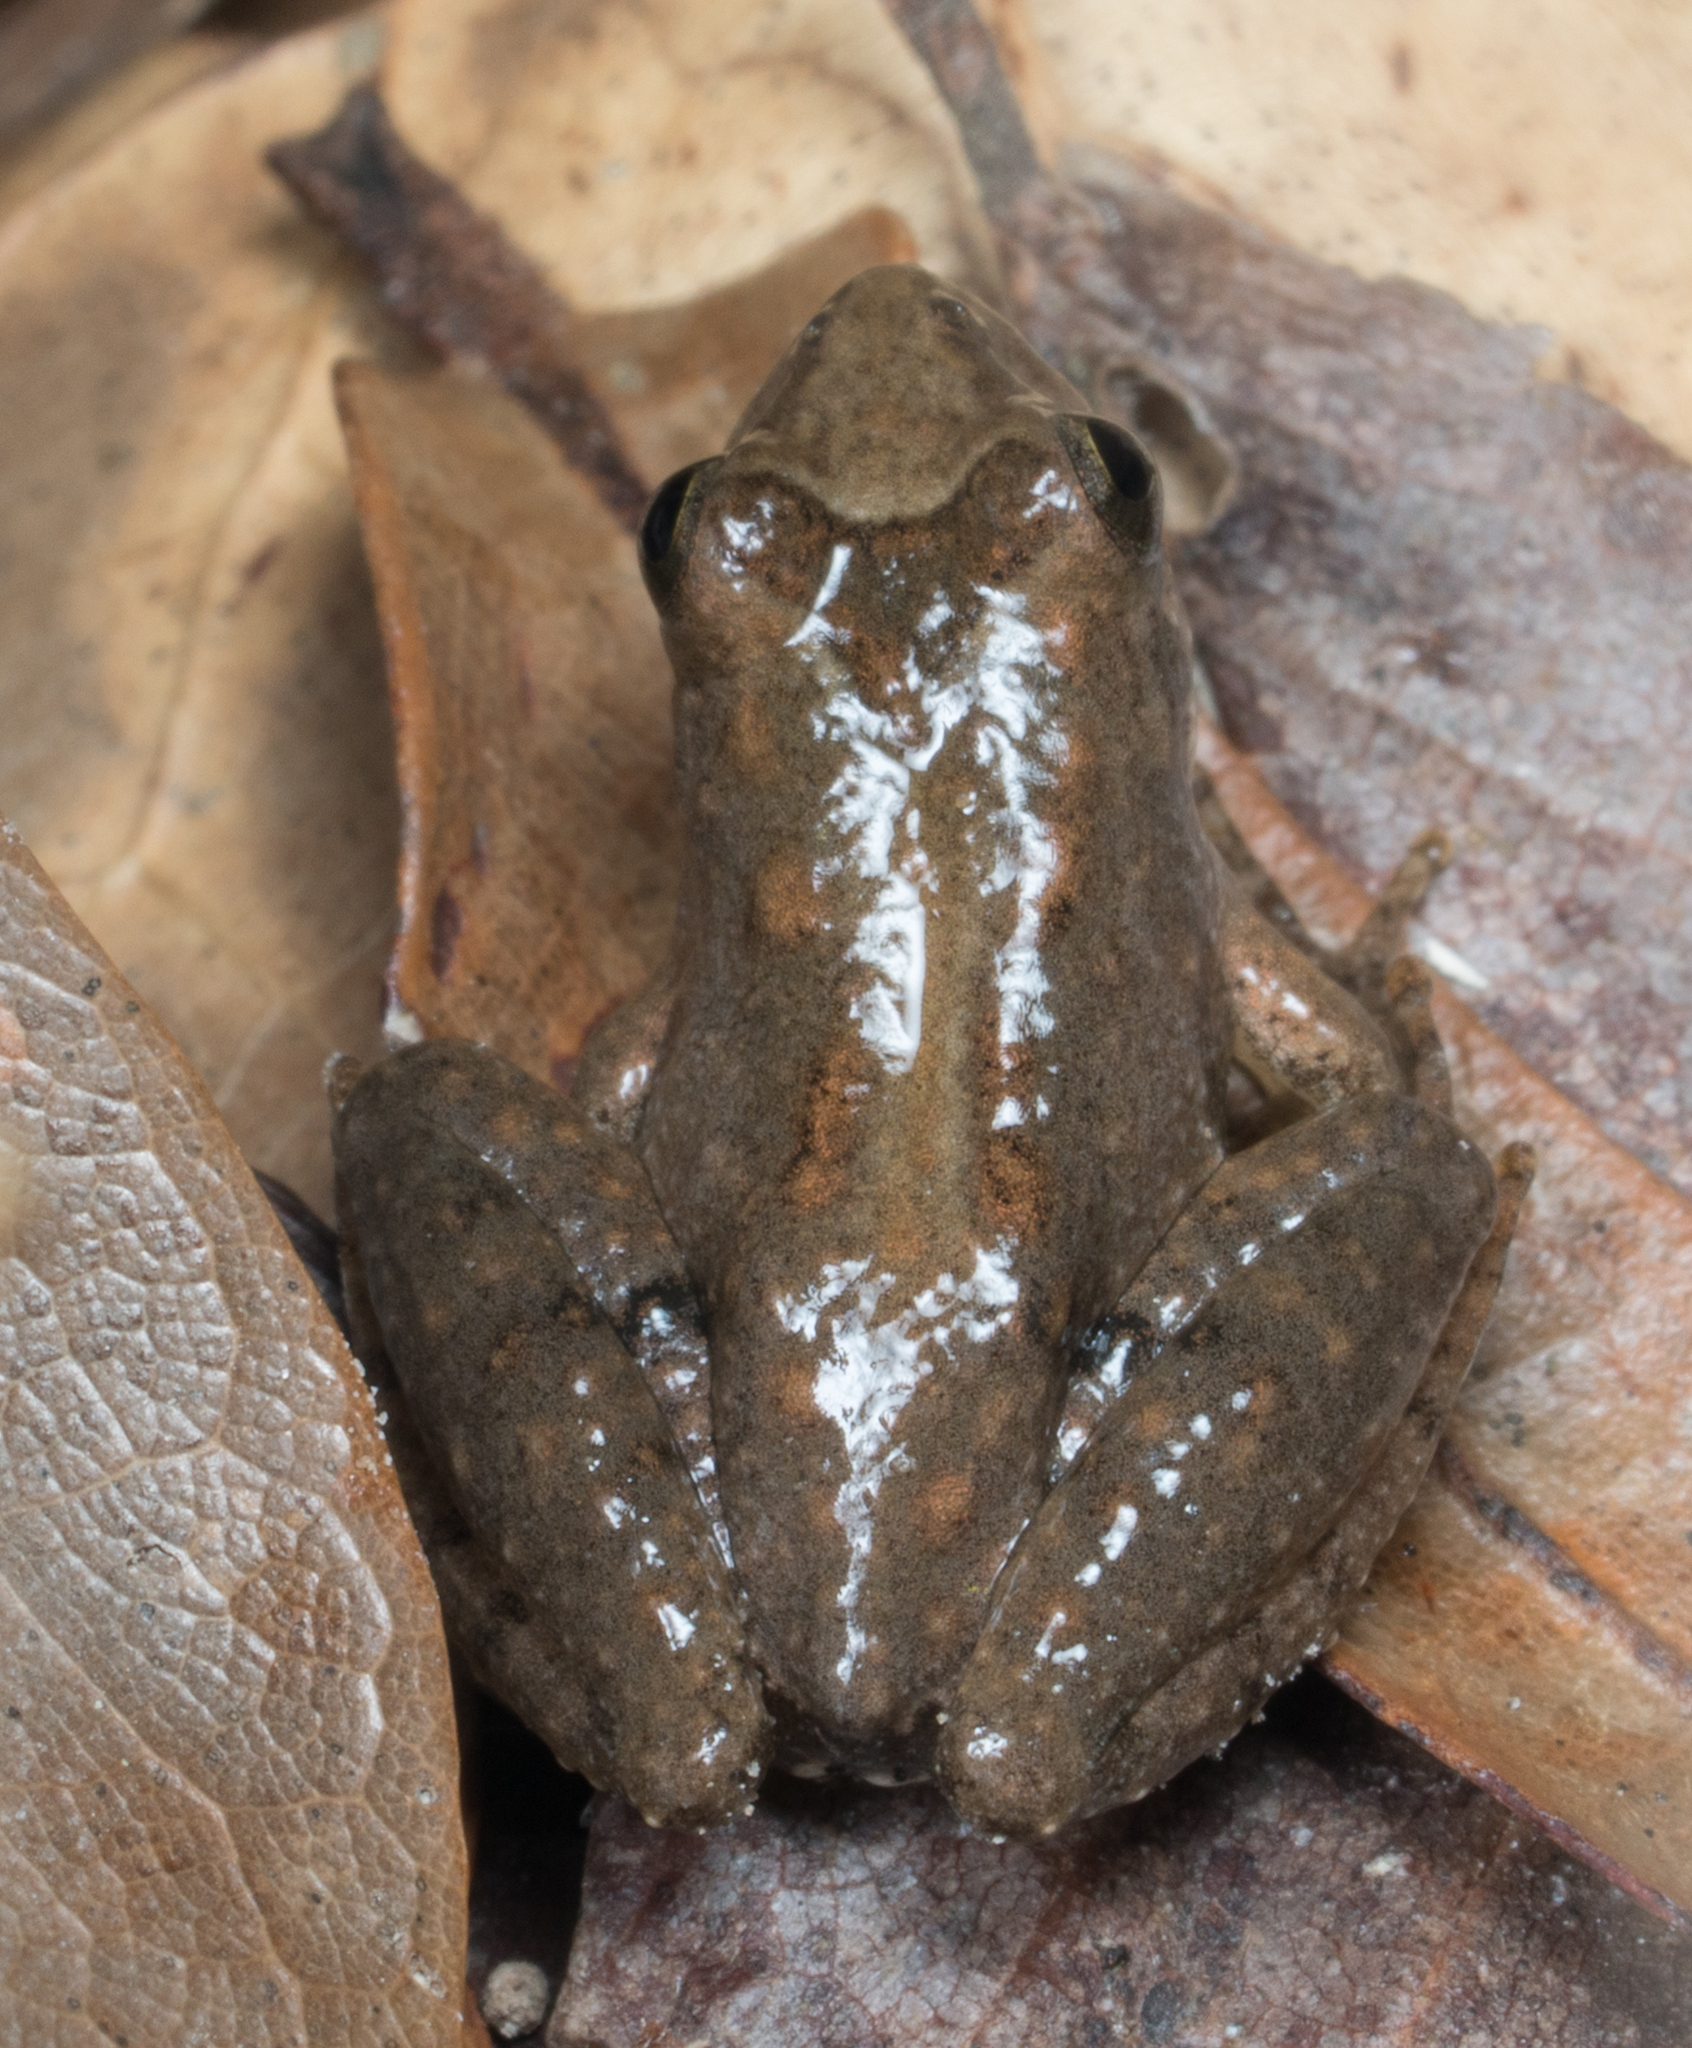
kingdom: Animalia
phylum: Chordata
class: Amphibia
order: Anura
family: Hylidae
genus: Acris
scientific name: Acris blanchardi
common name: Blanchard's cricket frog
